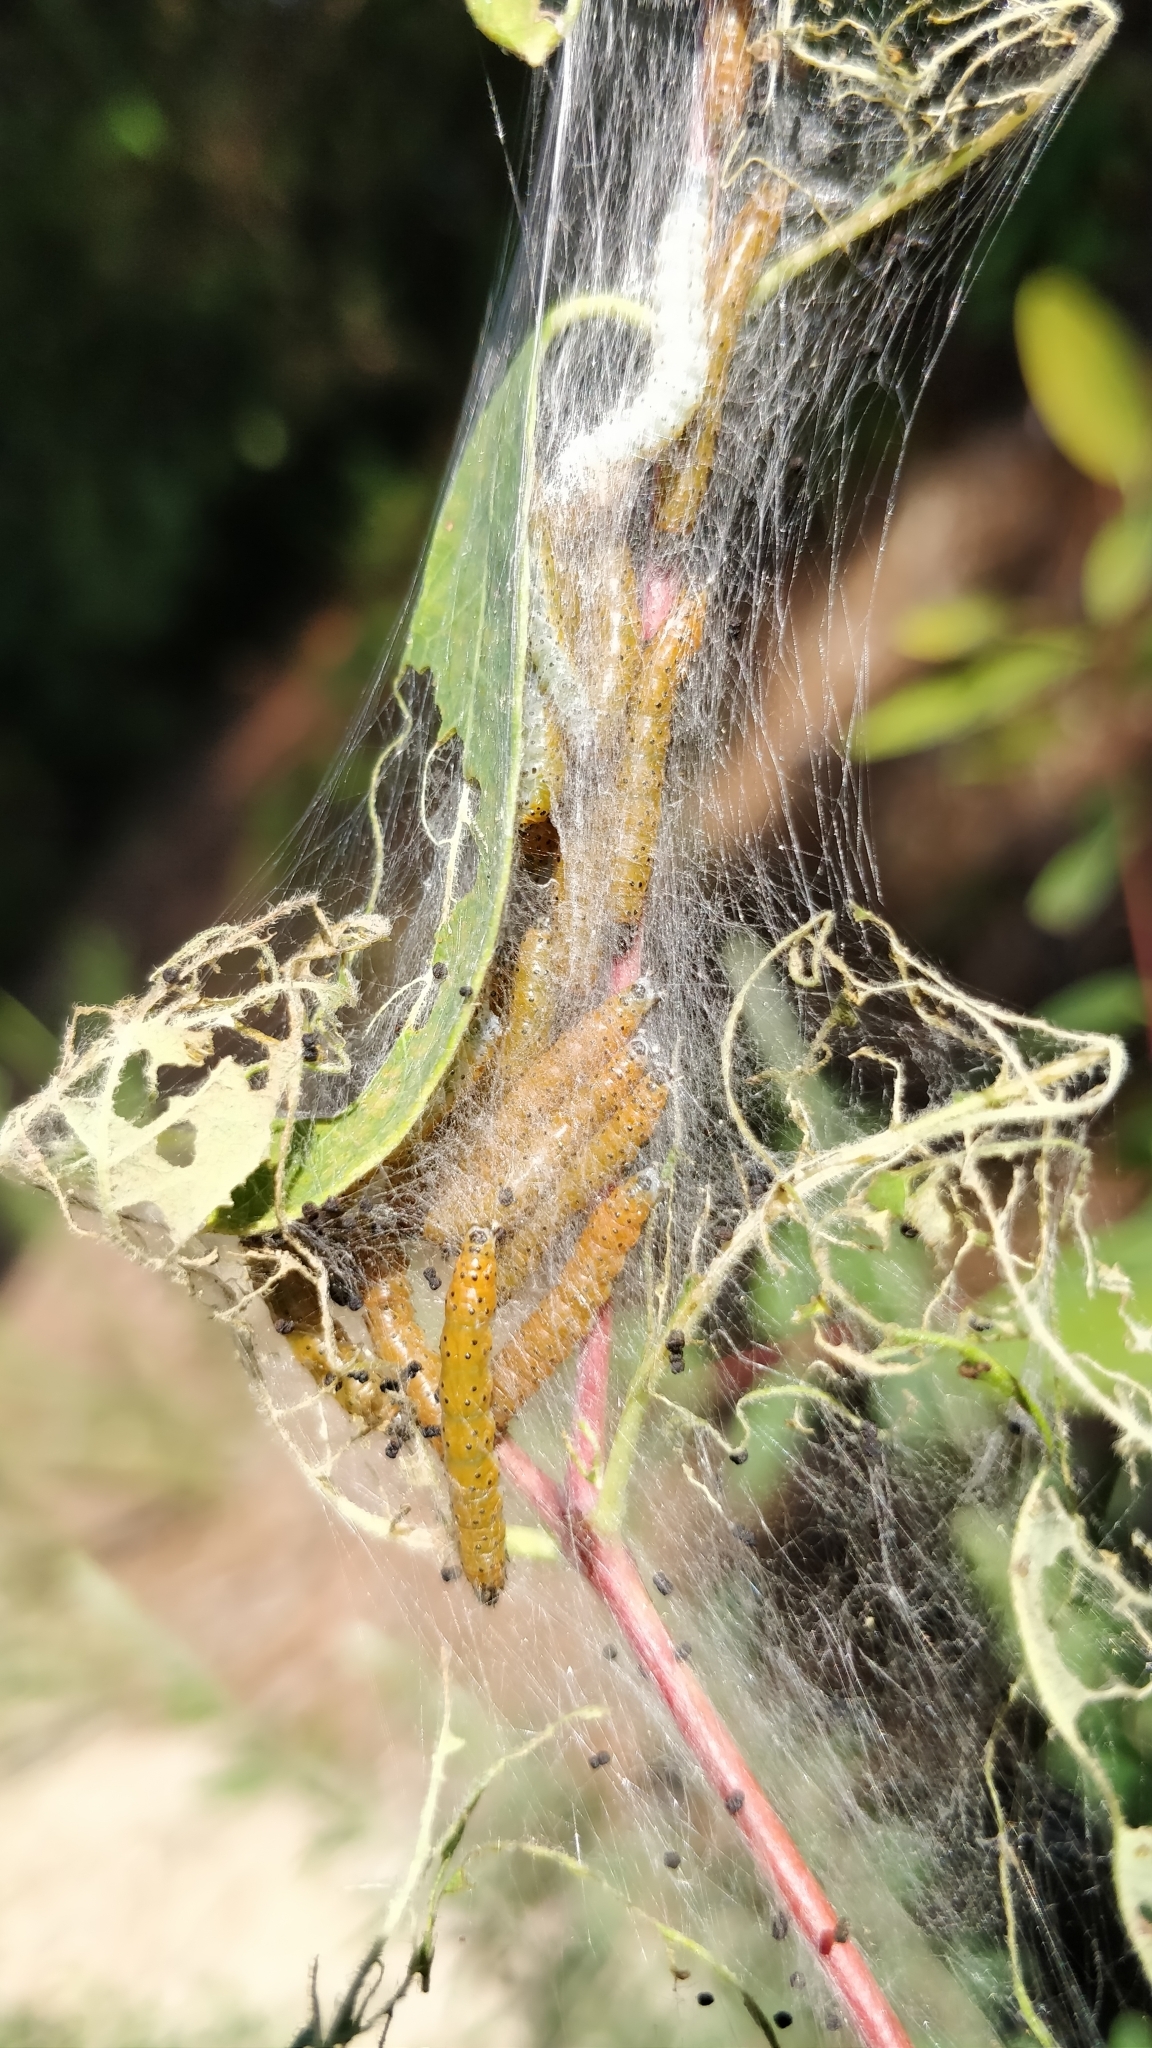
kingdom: Animalia
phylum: Arthropoda
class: Insecta
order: Lepidoptera
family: Crambidae
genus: Saucrobotys
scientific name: Saucrobotys futilalis
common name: Dogbane saucrobotys moth
